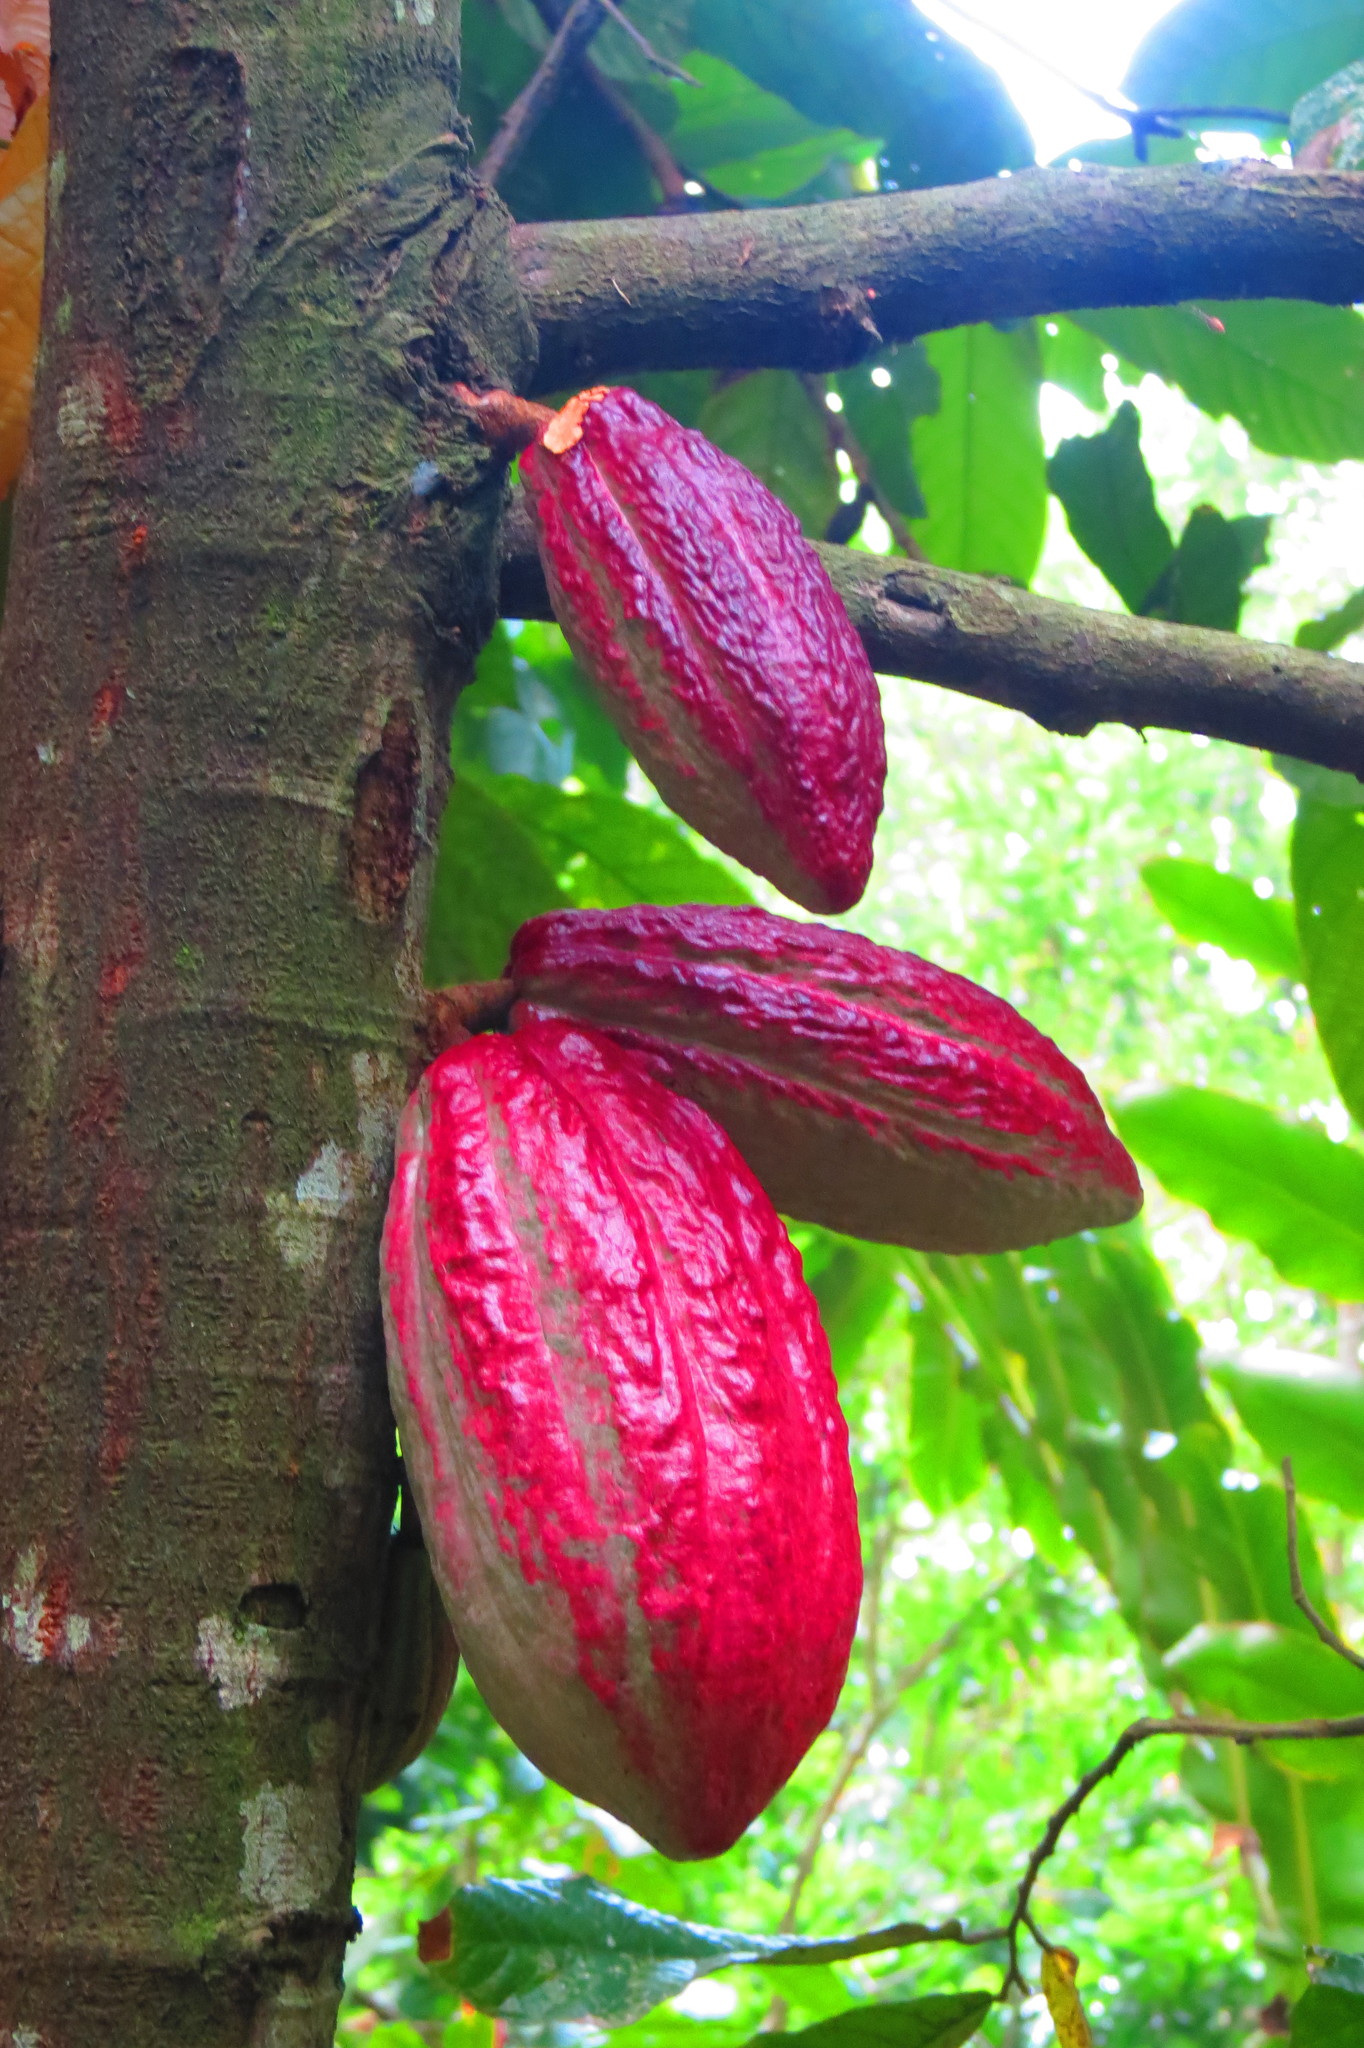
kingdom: Plantae
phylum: Tracheophyta
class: Magnoliopsida
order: Malvales
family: Malvaceae
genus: Theobroma
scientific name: Theobroma cacao
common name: Cocoa
